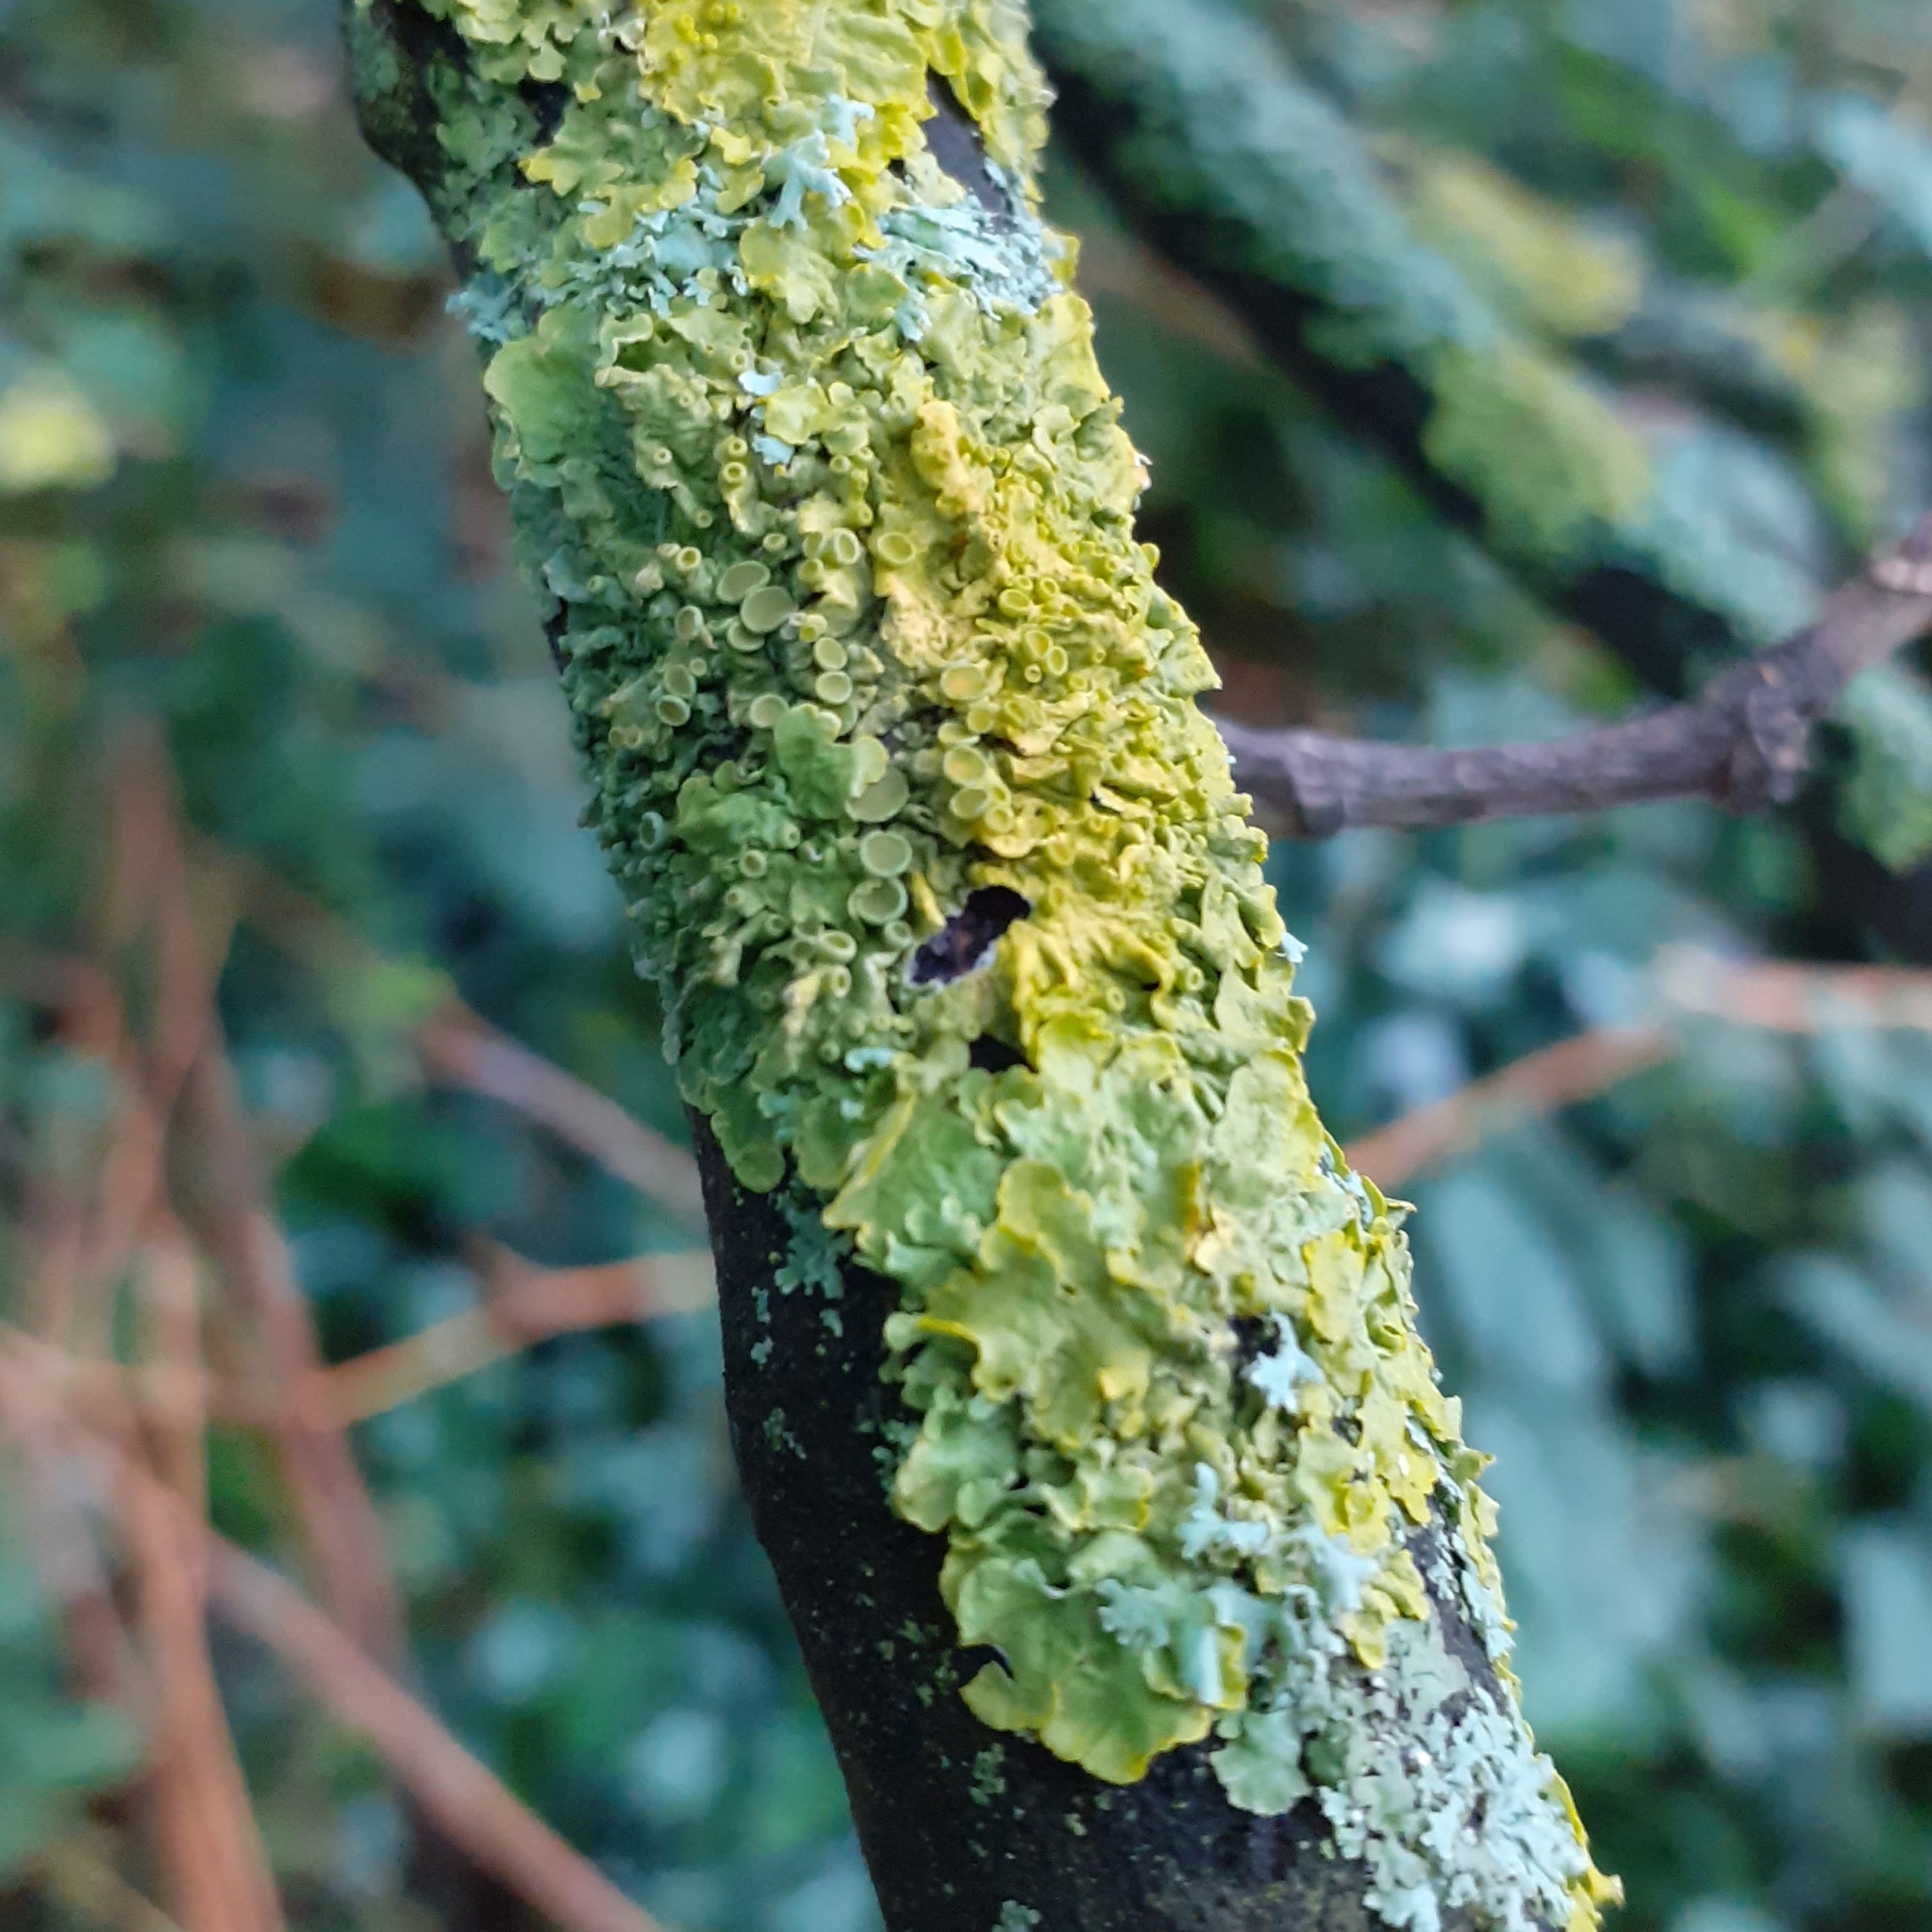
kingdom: Fungi
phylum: Ascomycota
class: Lecanoromycetes
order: Teloschistales
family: Teloschistaceae
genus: Xanthoria
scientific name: Xanthoria parietina
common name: Common orange lichen
